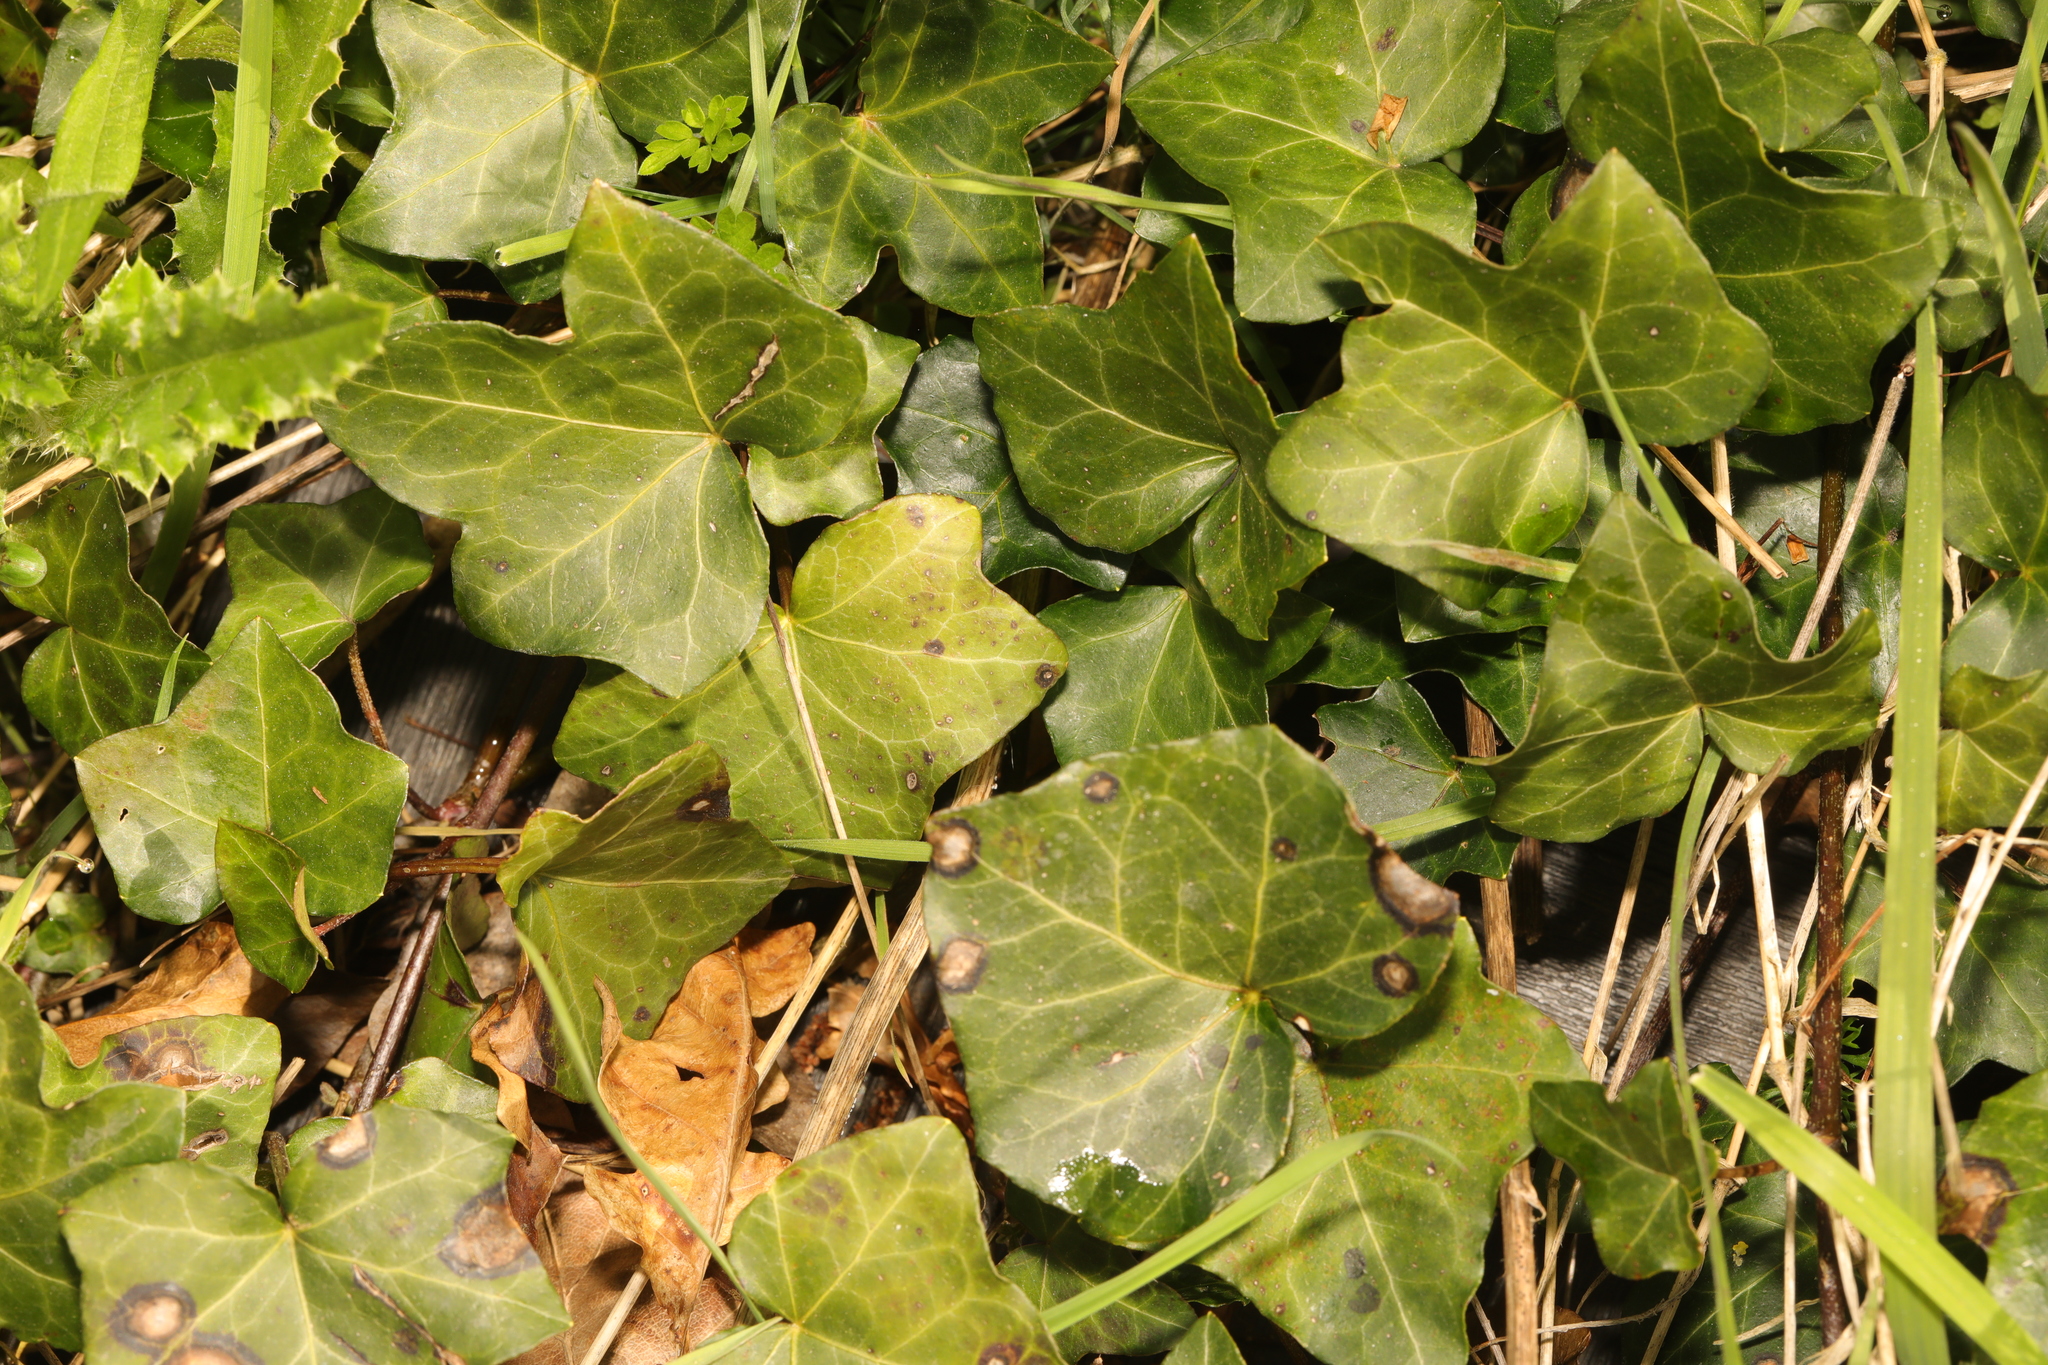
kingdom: Plantae
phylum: Tracheophyta
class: Magnoliopsida
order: Apiales
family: Araliaceae
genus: Hedera
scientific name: Hedera helix
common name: Ivy
